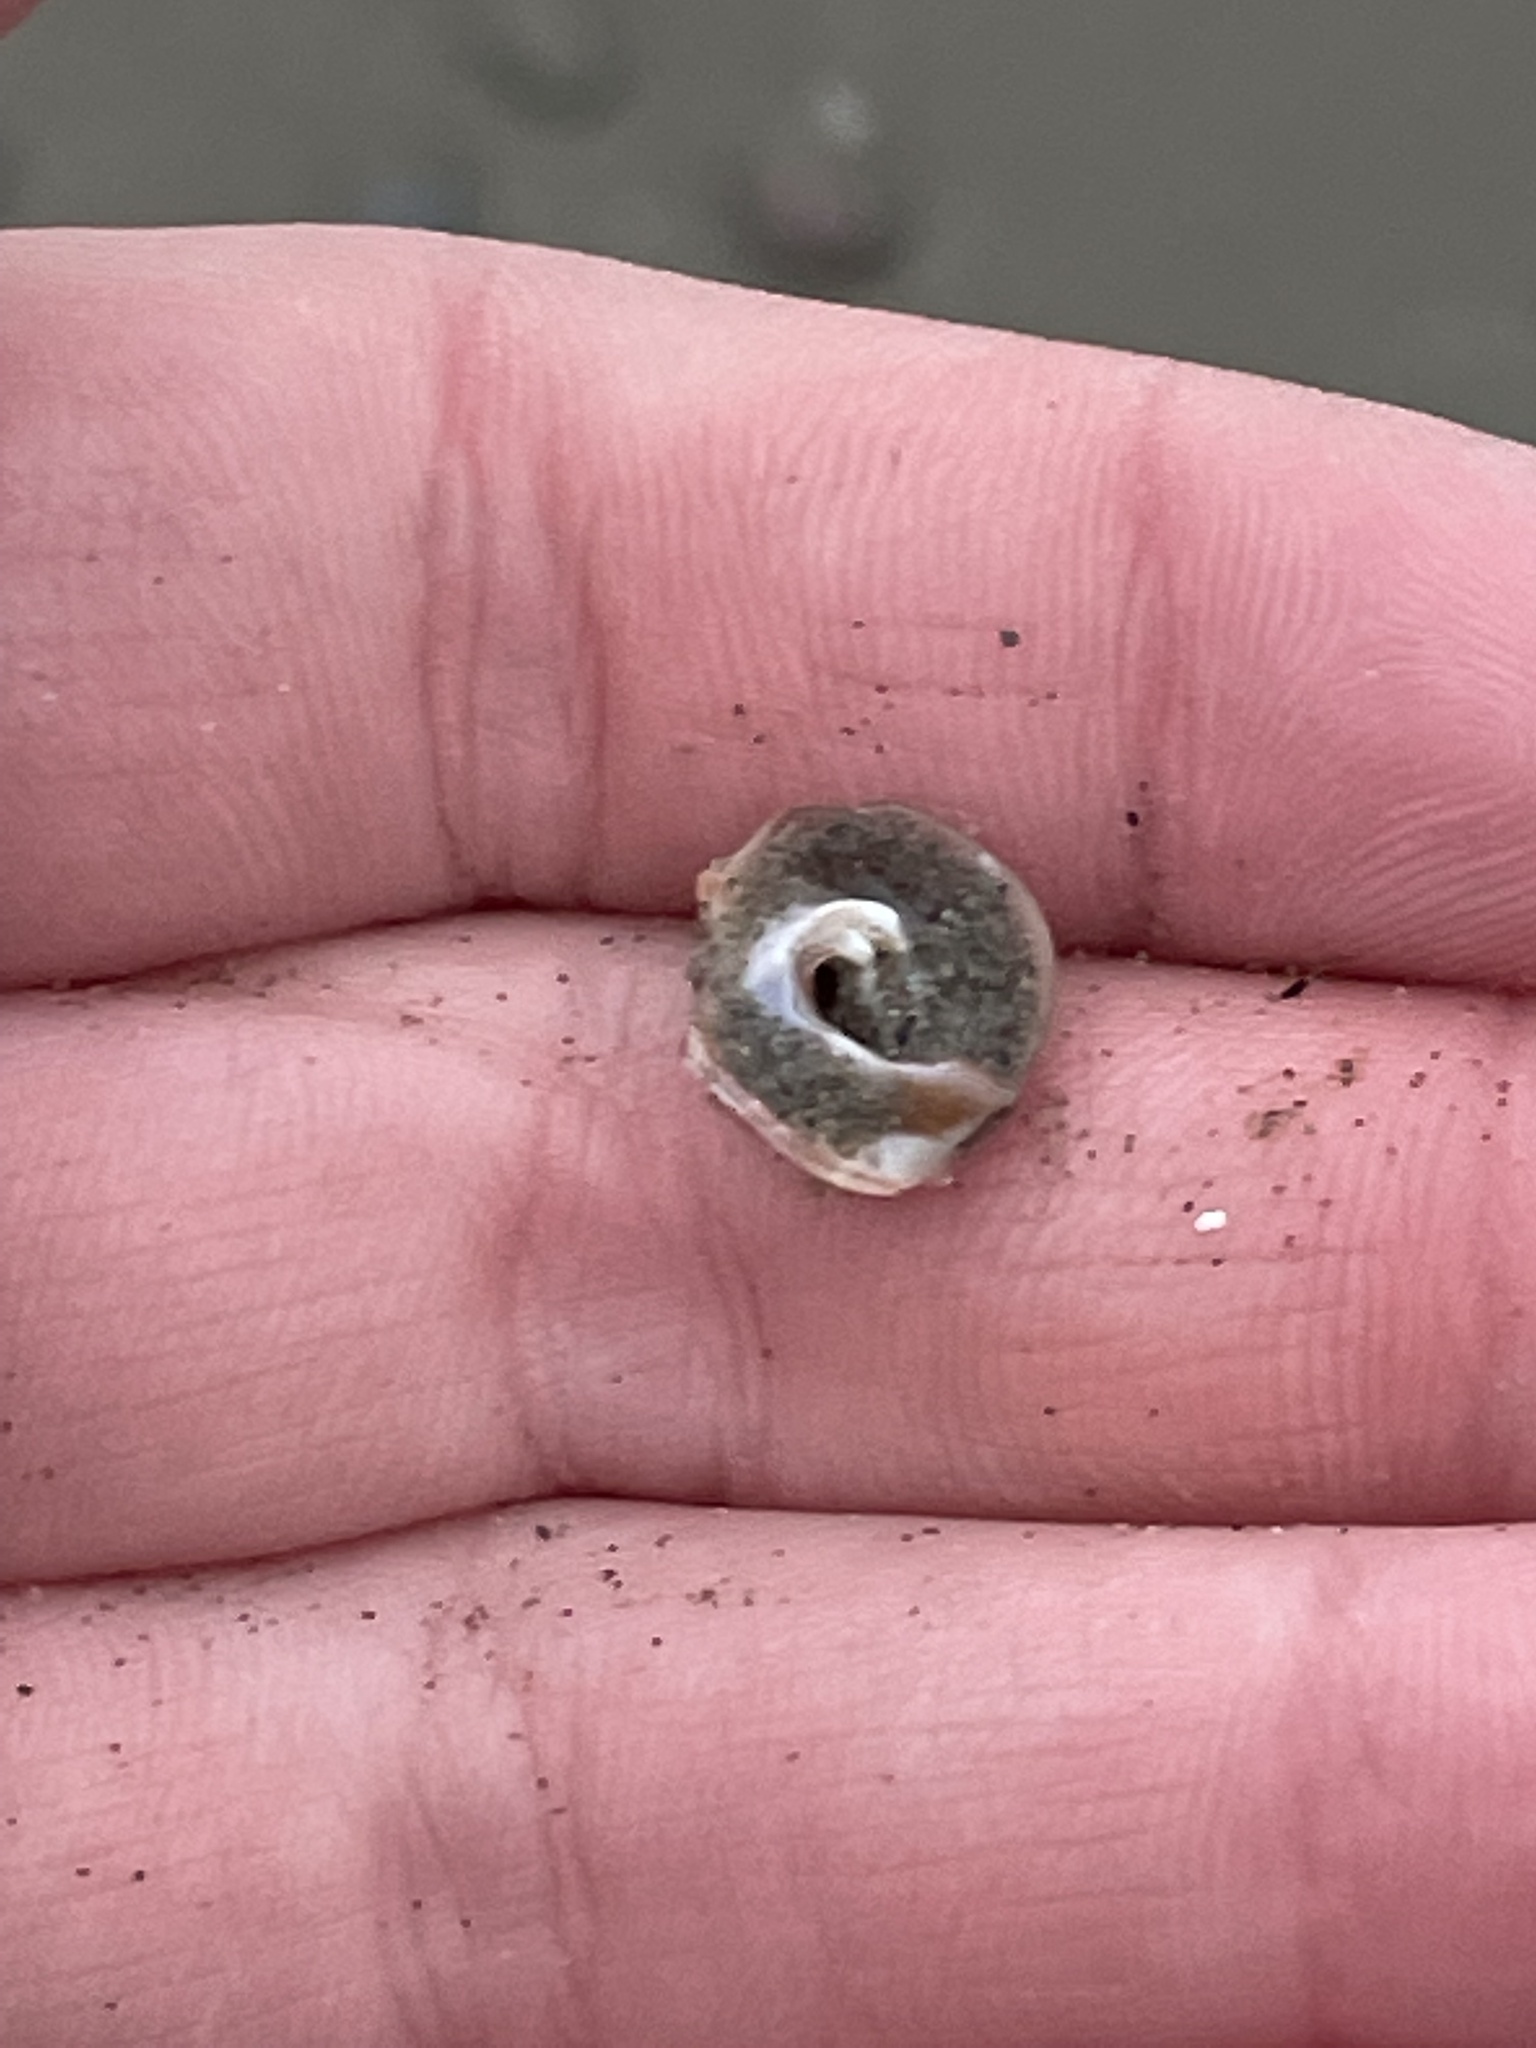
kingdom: Animalia
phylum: Mollusca
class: Gastropoda
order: Littorinimorpha
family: Naticidae
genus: Euspira
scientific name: Euspira heros
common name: Common northern moonsnail
